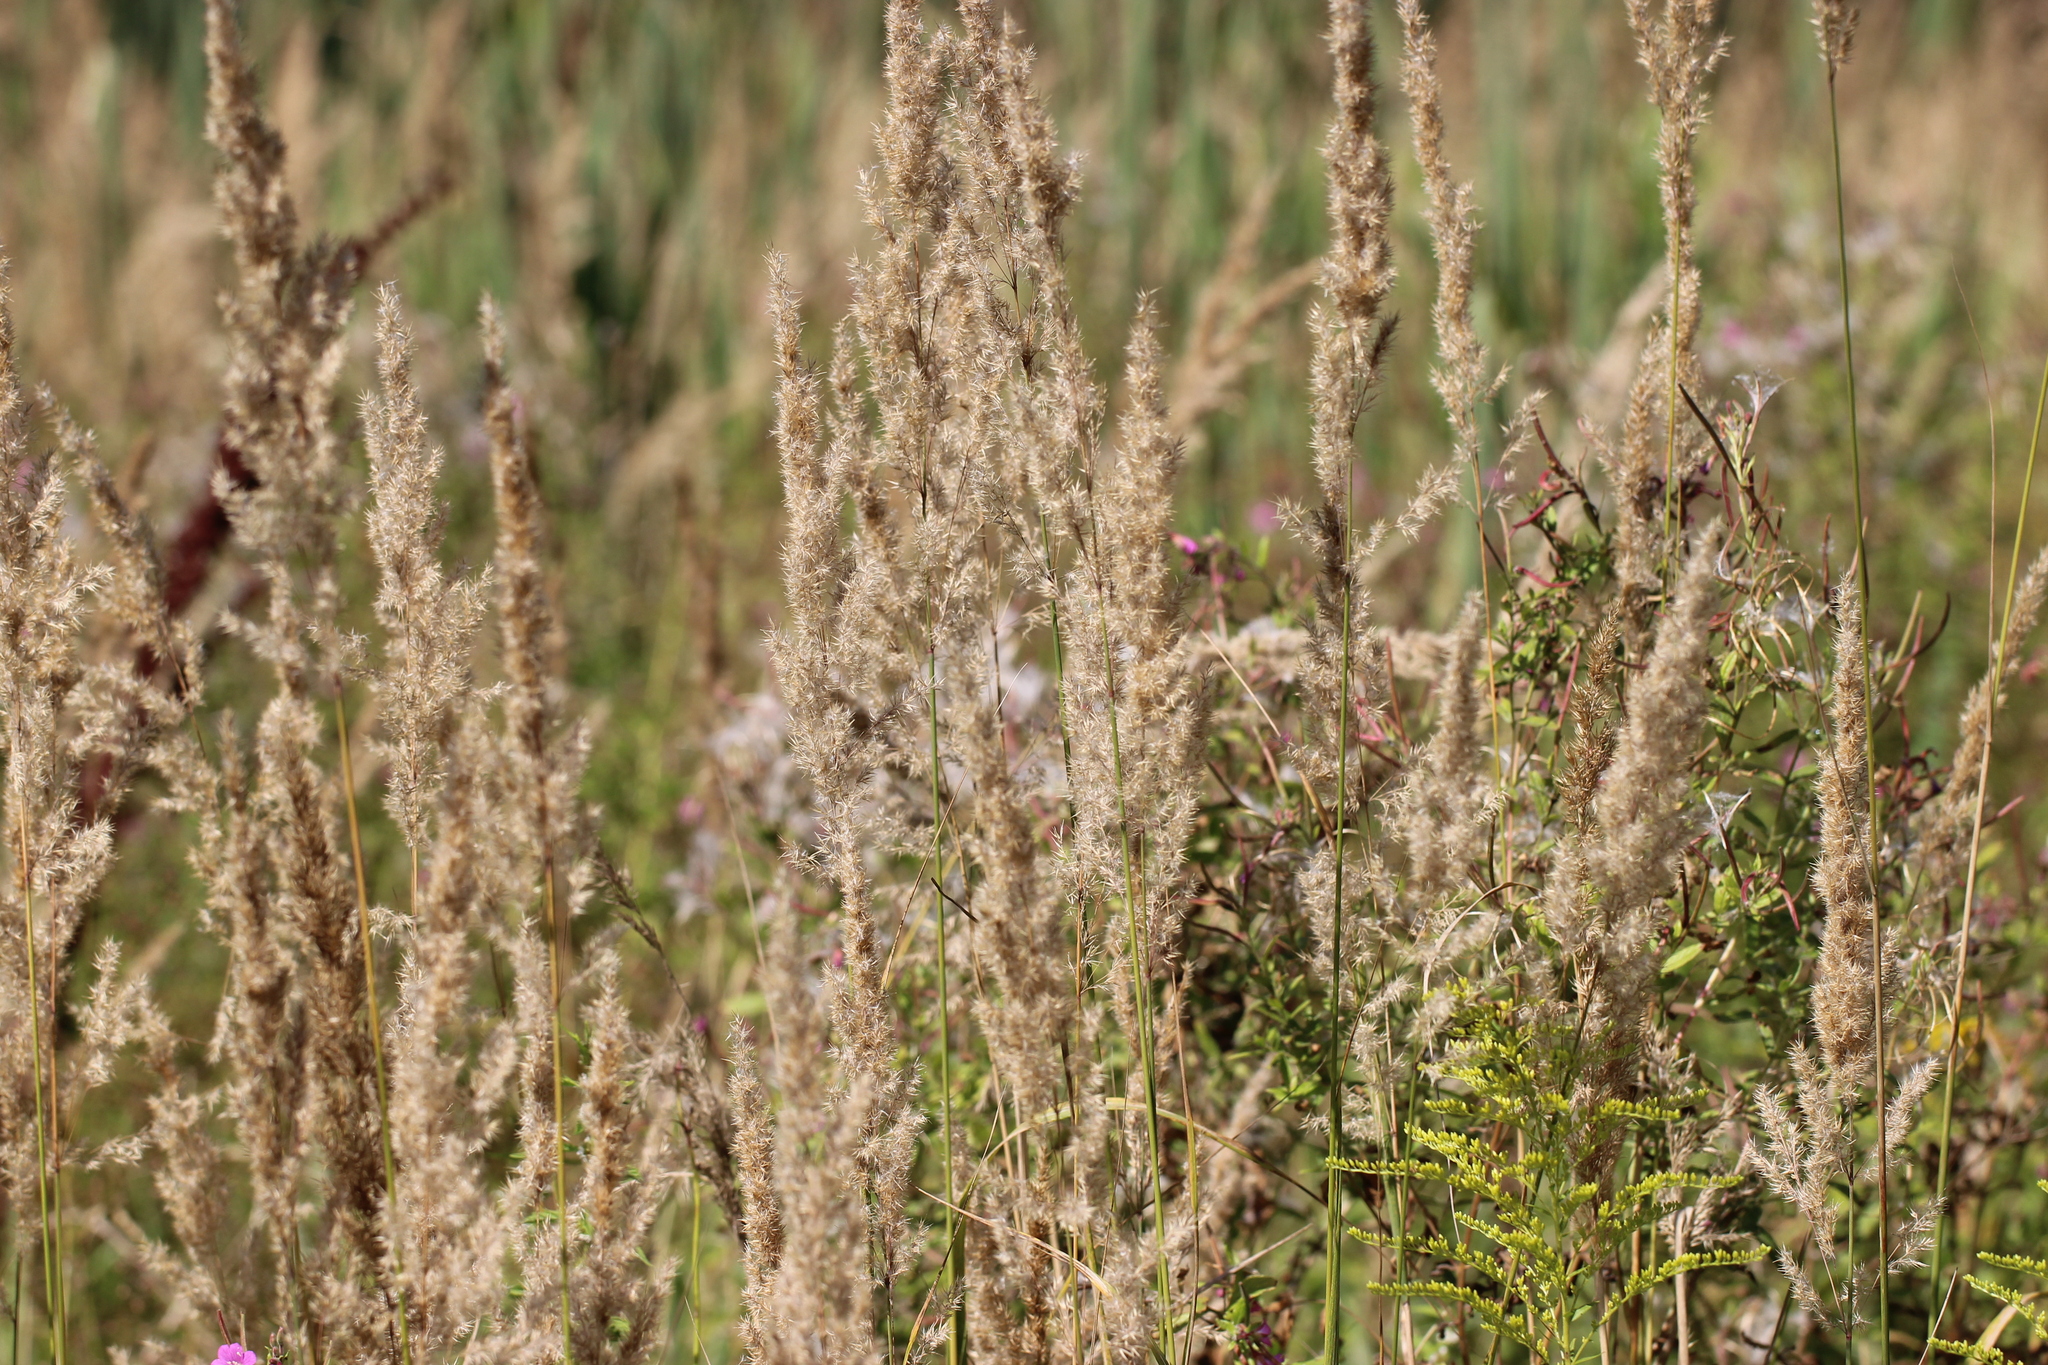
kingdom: Plantae
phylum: Tracheophyta
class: Liliopsida
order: Poales
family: Poaceae
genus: Calamagrostis
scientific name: Calamagrostis epigejos
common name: Wood small-reed
